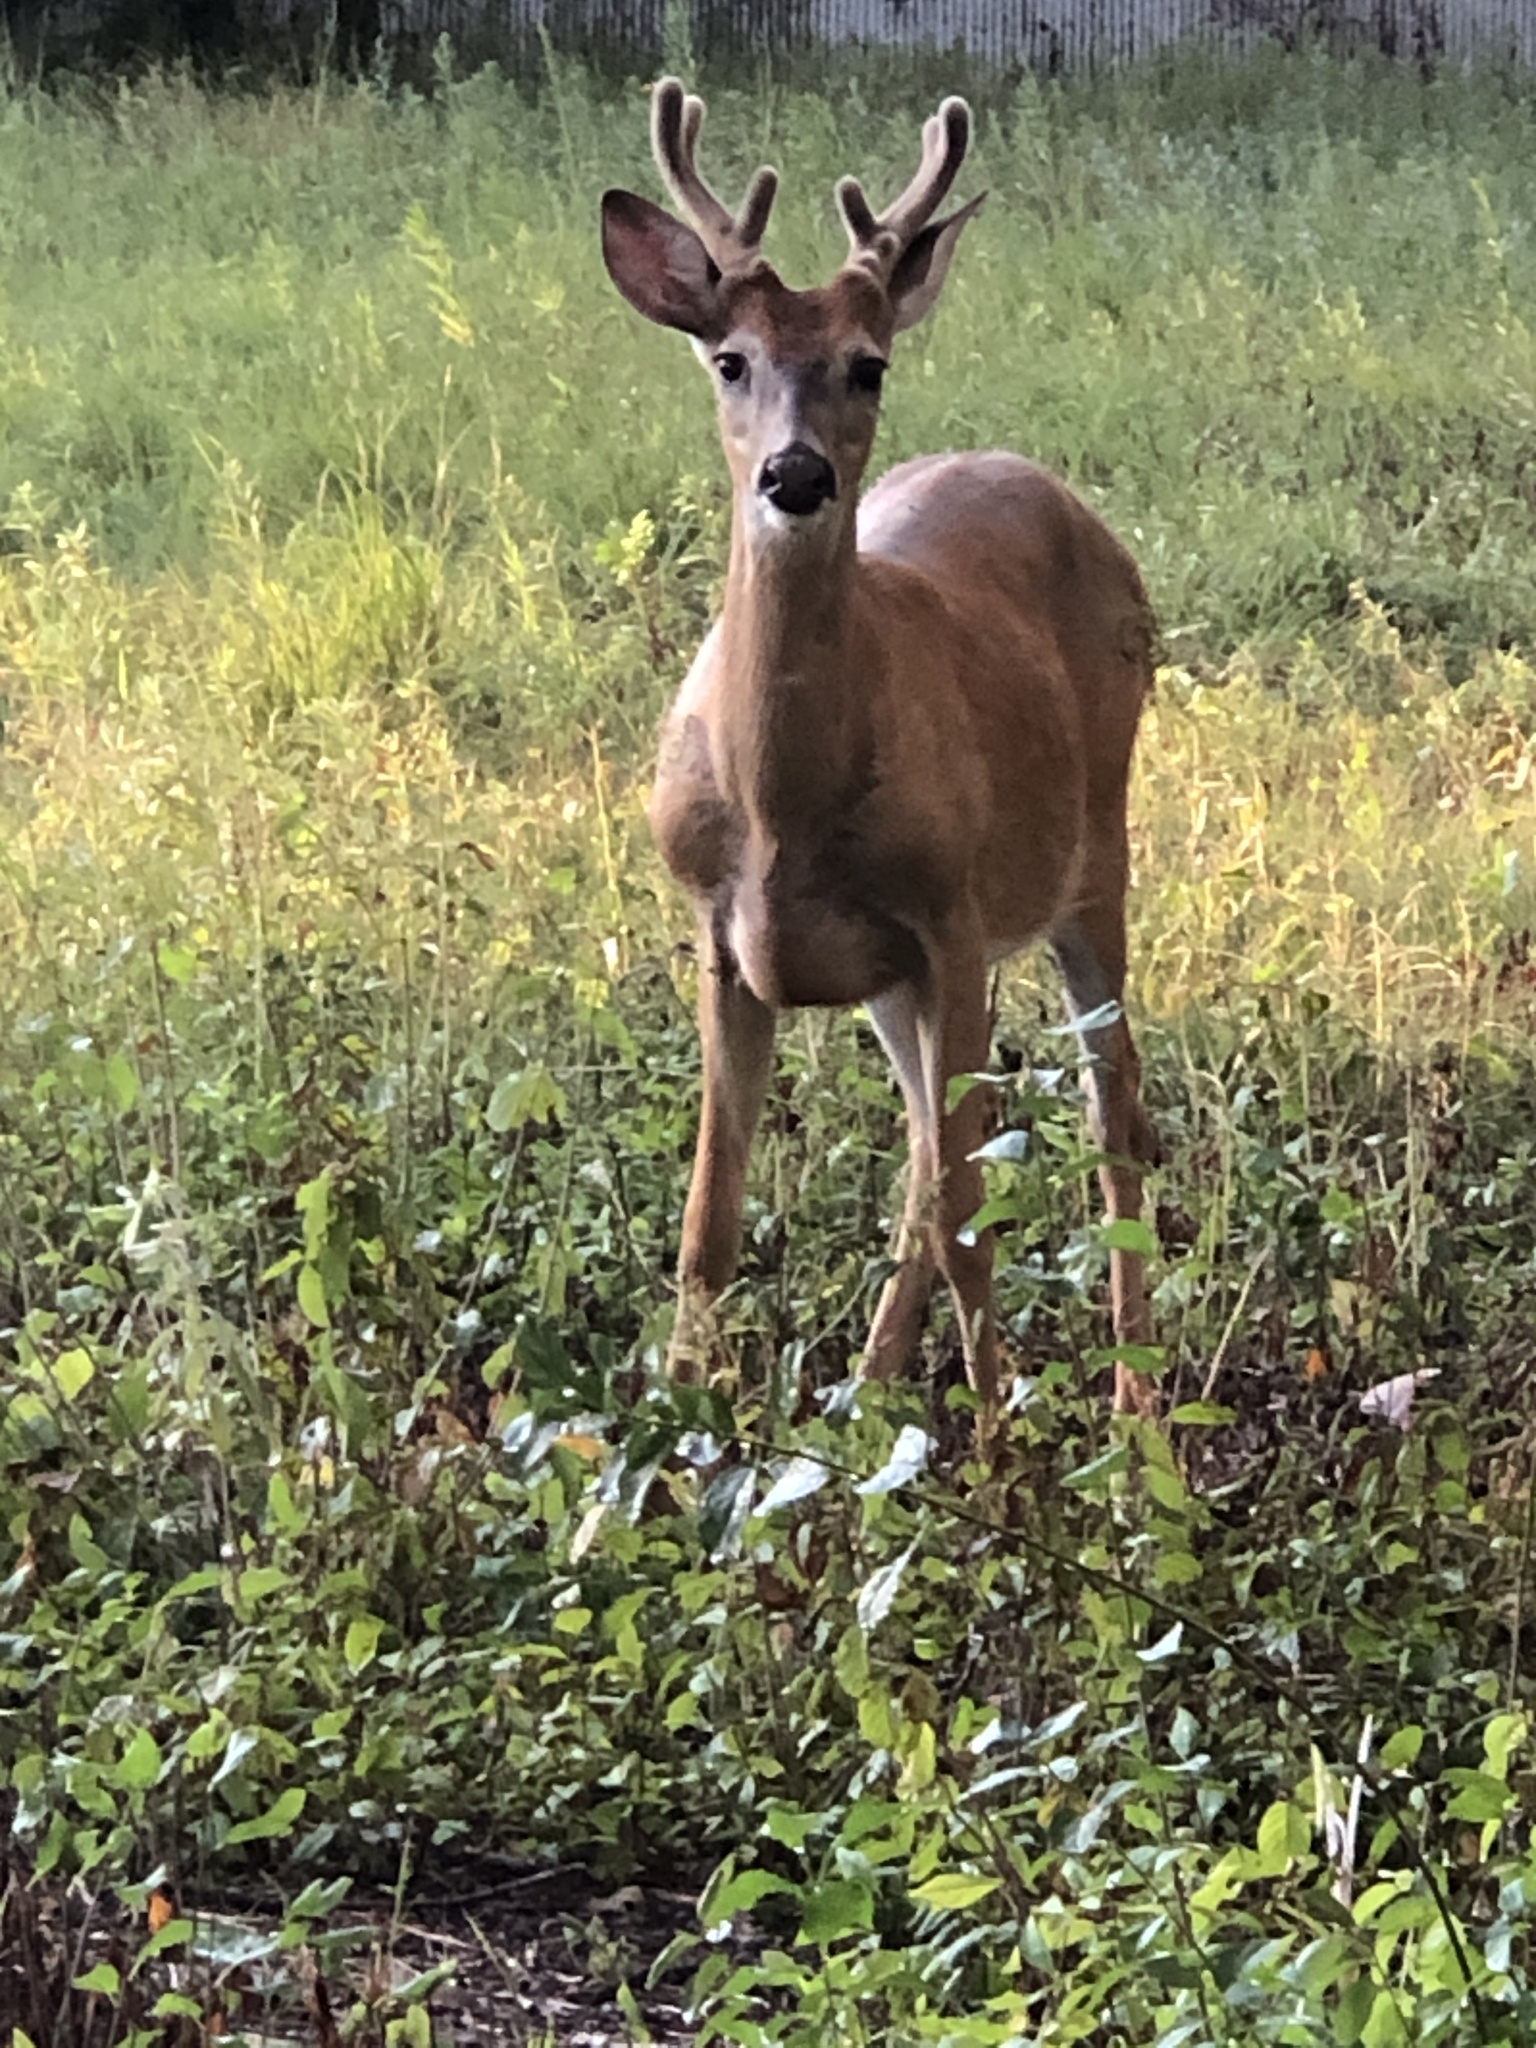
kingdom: Animalia
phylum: Chordata
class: Mammalia
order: Artiodactyla
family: Cervidae
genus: Odocoileus
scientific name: Odocoileus virginianus
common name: White-tailed deer
